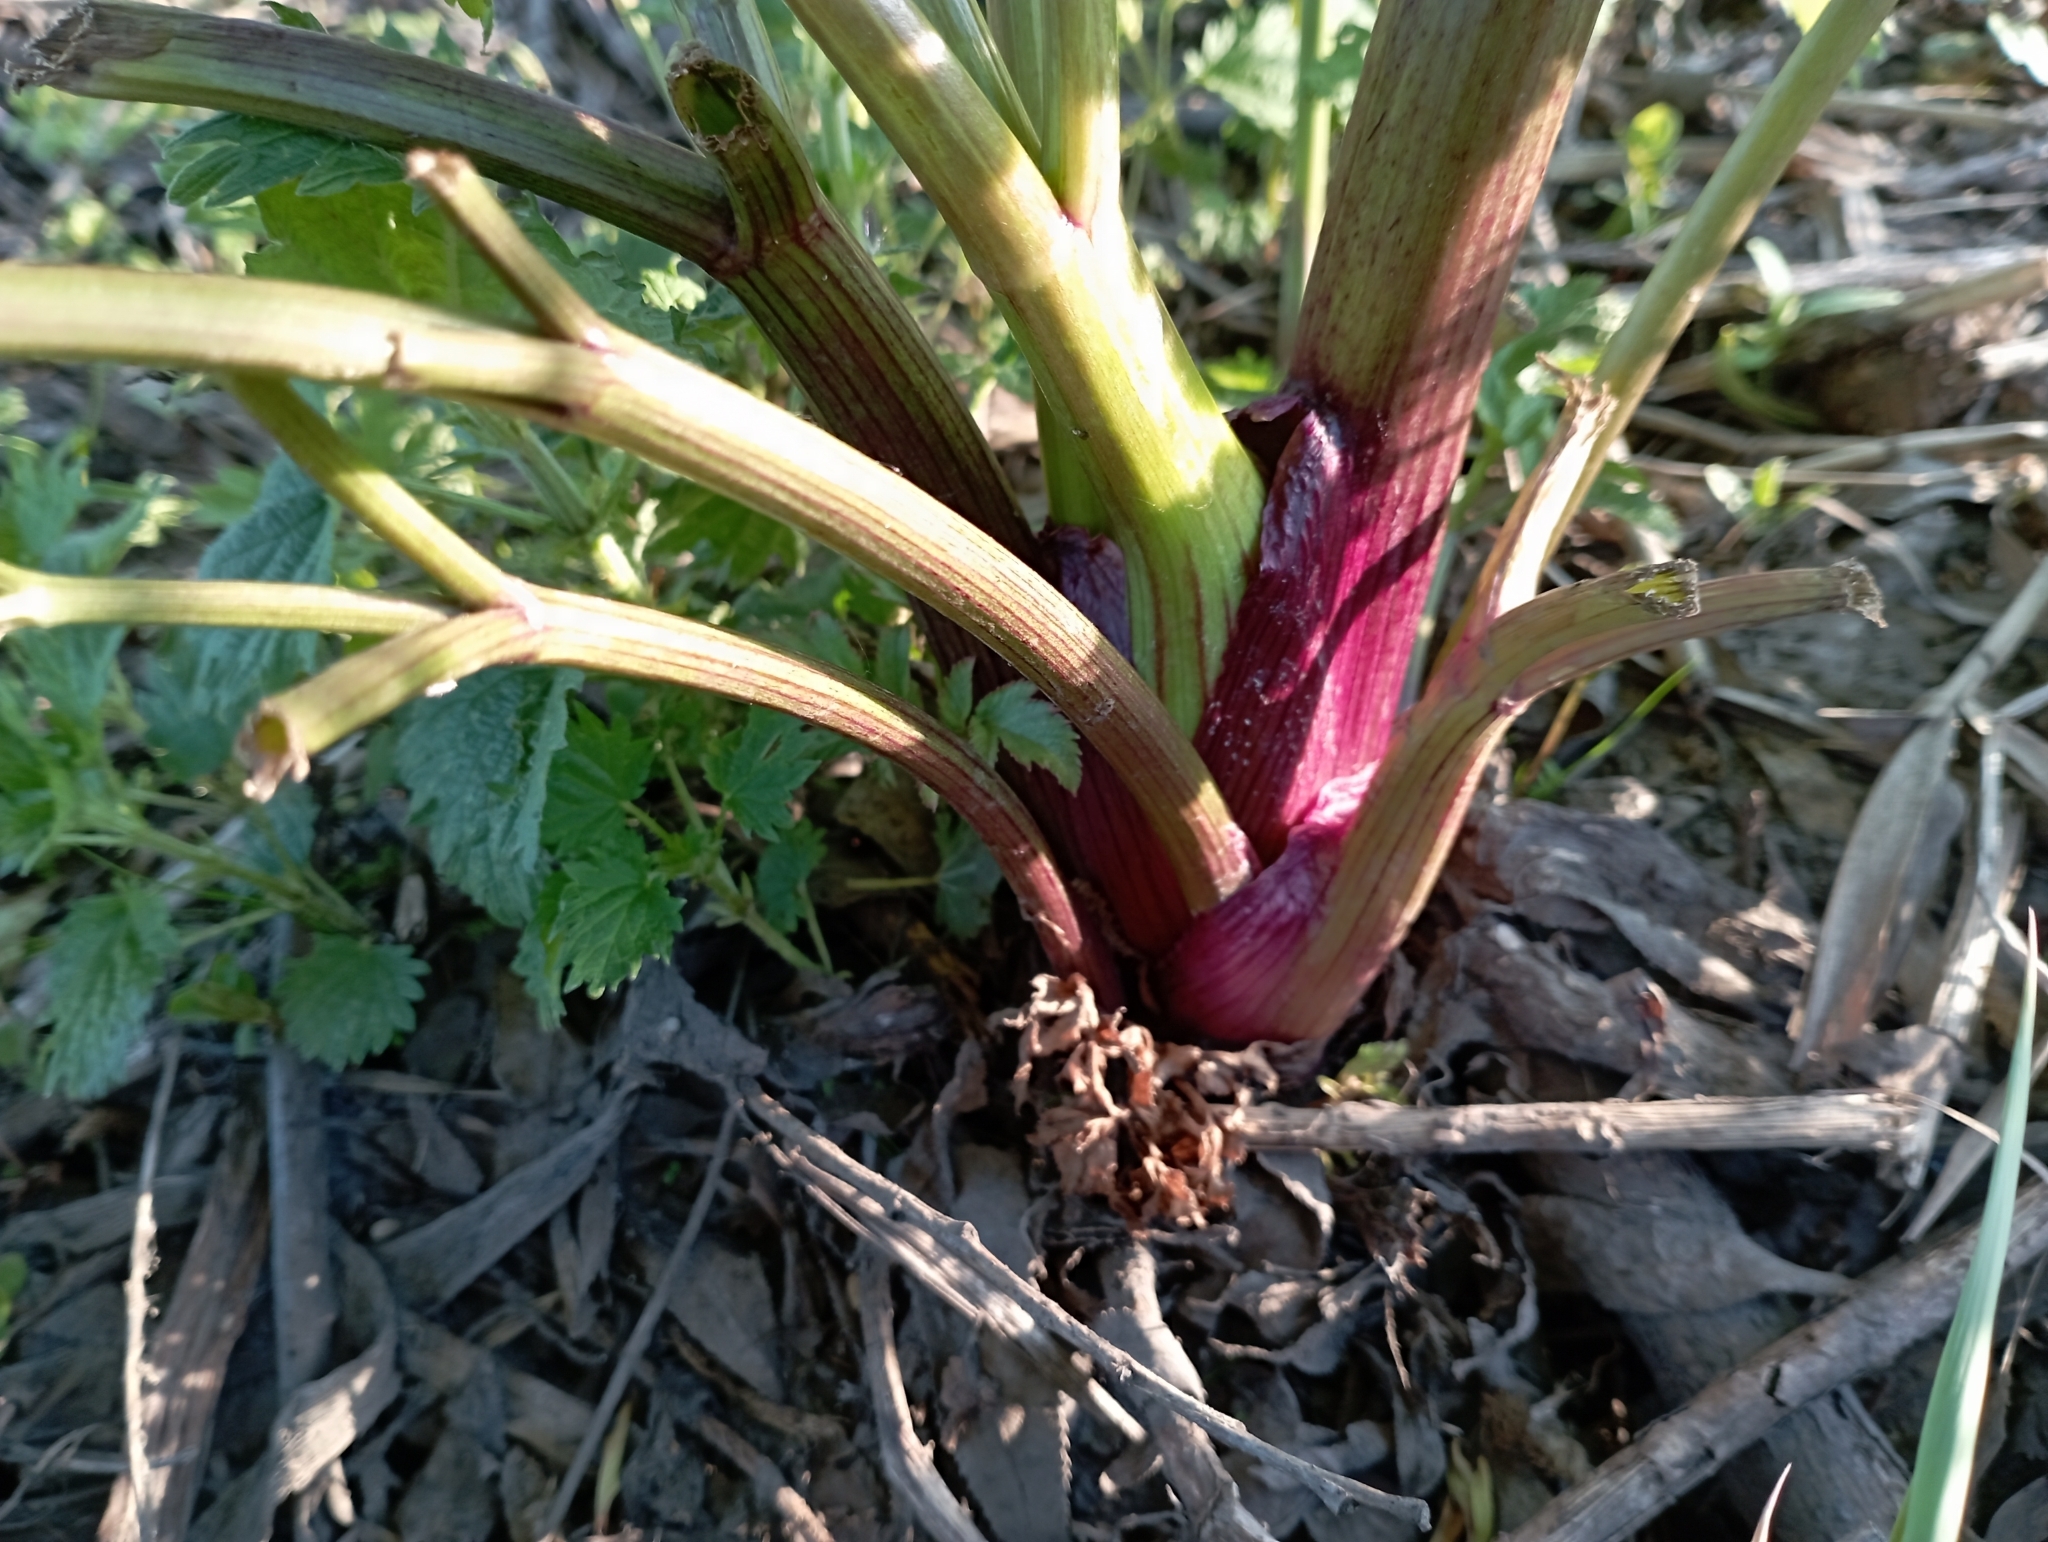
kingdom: Plantae
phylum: Tracheophyta
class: Magnoliopsida
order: Apiales
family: Apiaceae
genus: Angelica
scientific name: Angelica archangelica
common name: Garden angelica
